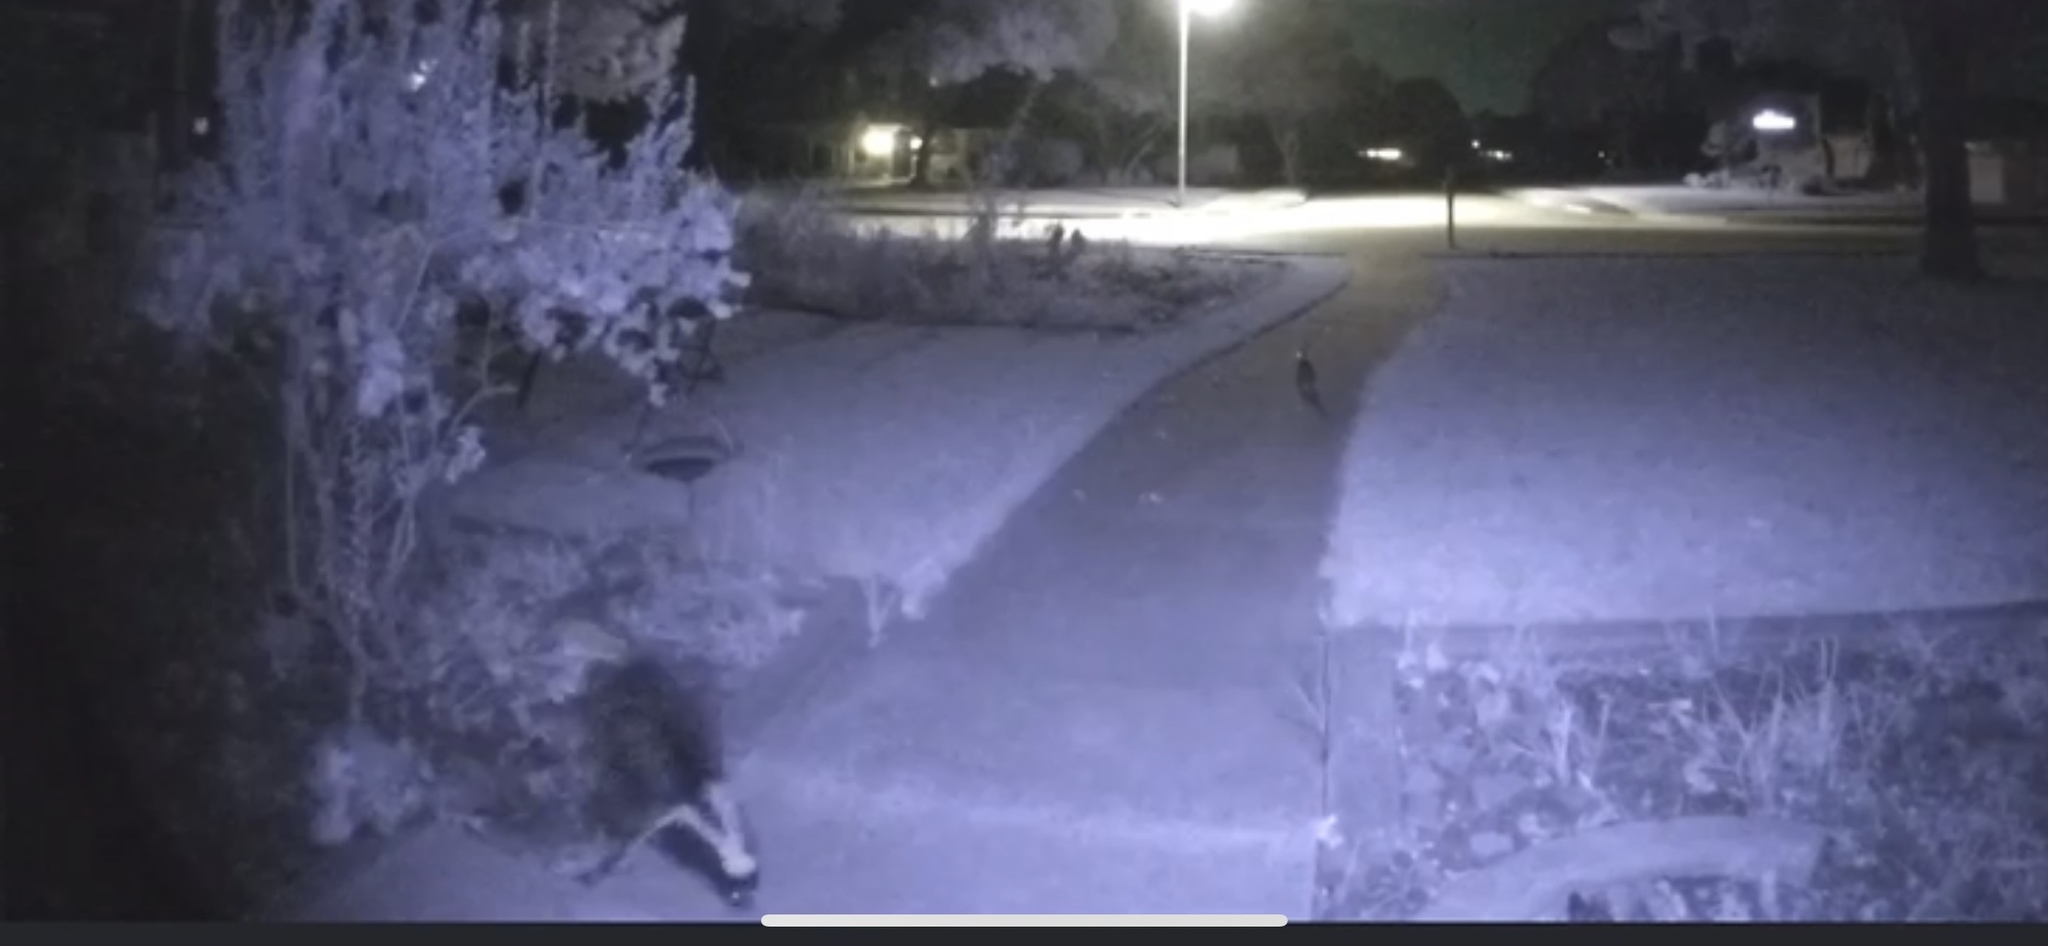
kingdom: Animalia
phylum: Chordata
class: Mammalia
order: Carnivora
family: Mephitidae
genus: Mephitis
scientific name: Mephitis mephitis
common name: Striped skunk
